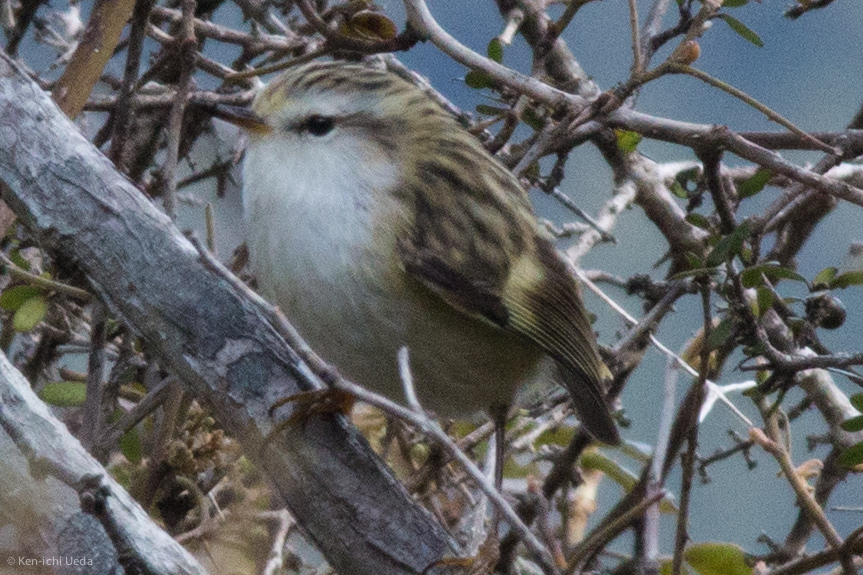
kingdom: Animalia
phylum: Chordata
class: Aves
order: Passeriformes
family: Acanthisittidae
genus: Acanthisitta
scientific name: Acanthisitta chloris
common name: Rifleman
